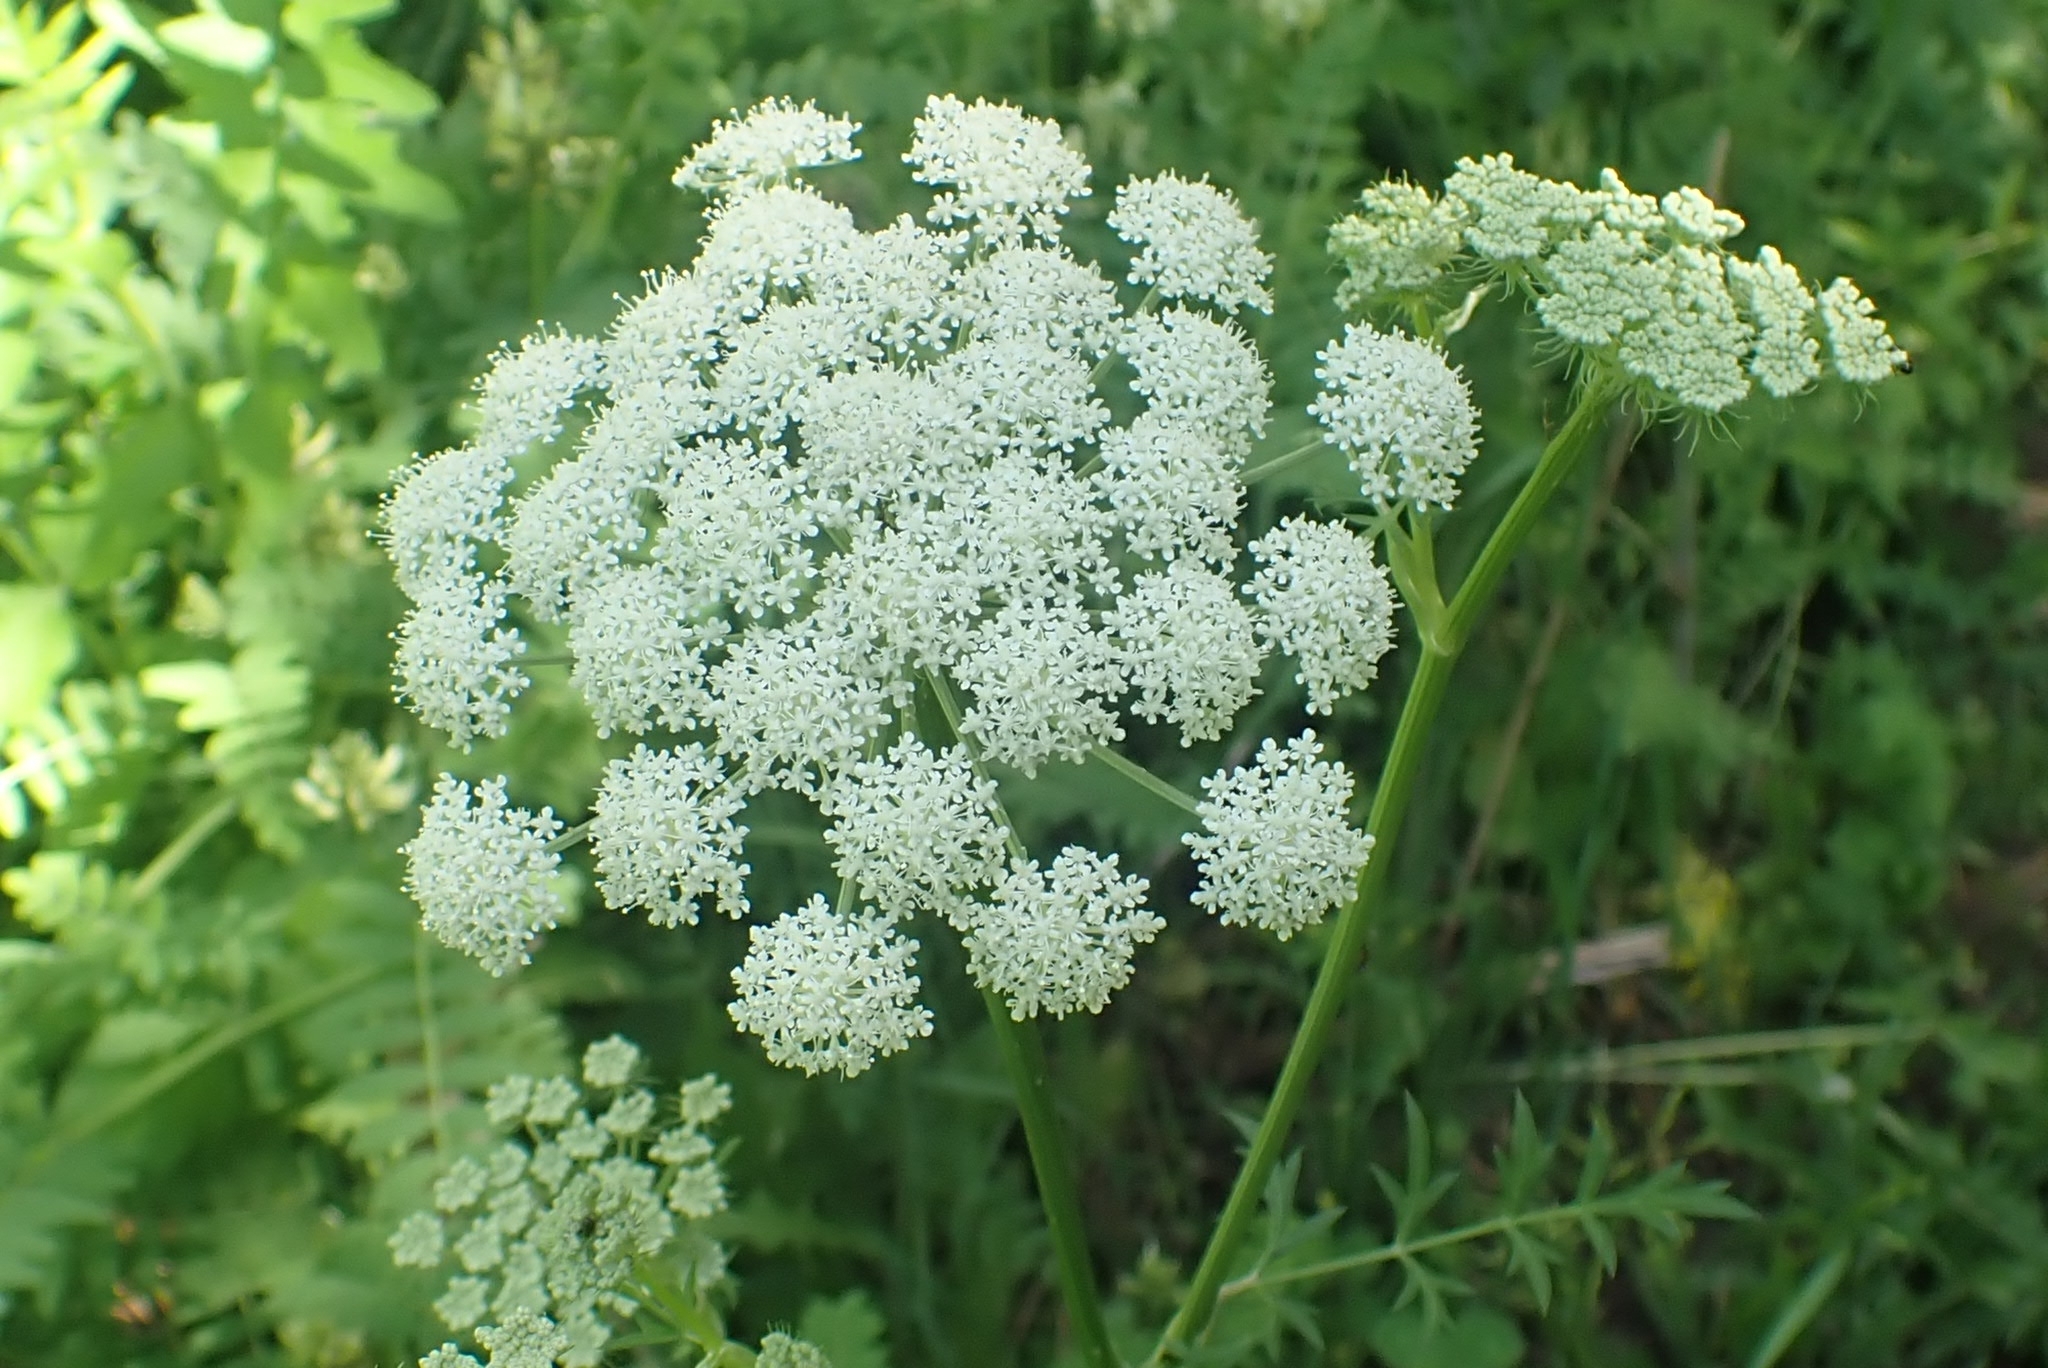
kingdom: Plantae
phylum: Tracheophyta
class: Magnoliopsida
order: Apiales
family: Apiaceae
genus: Seseli
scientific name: Seseli libanotis
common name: Mooncarrot
